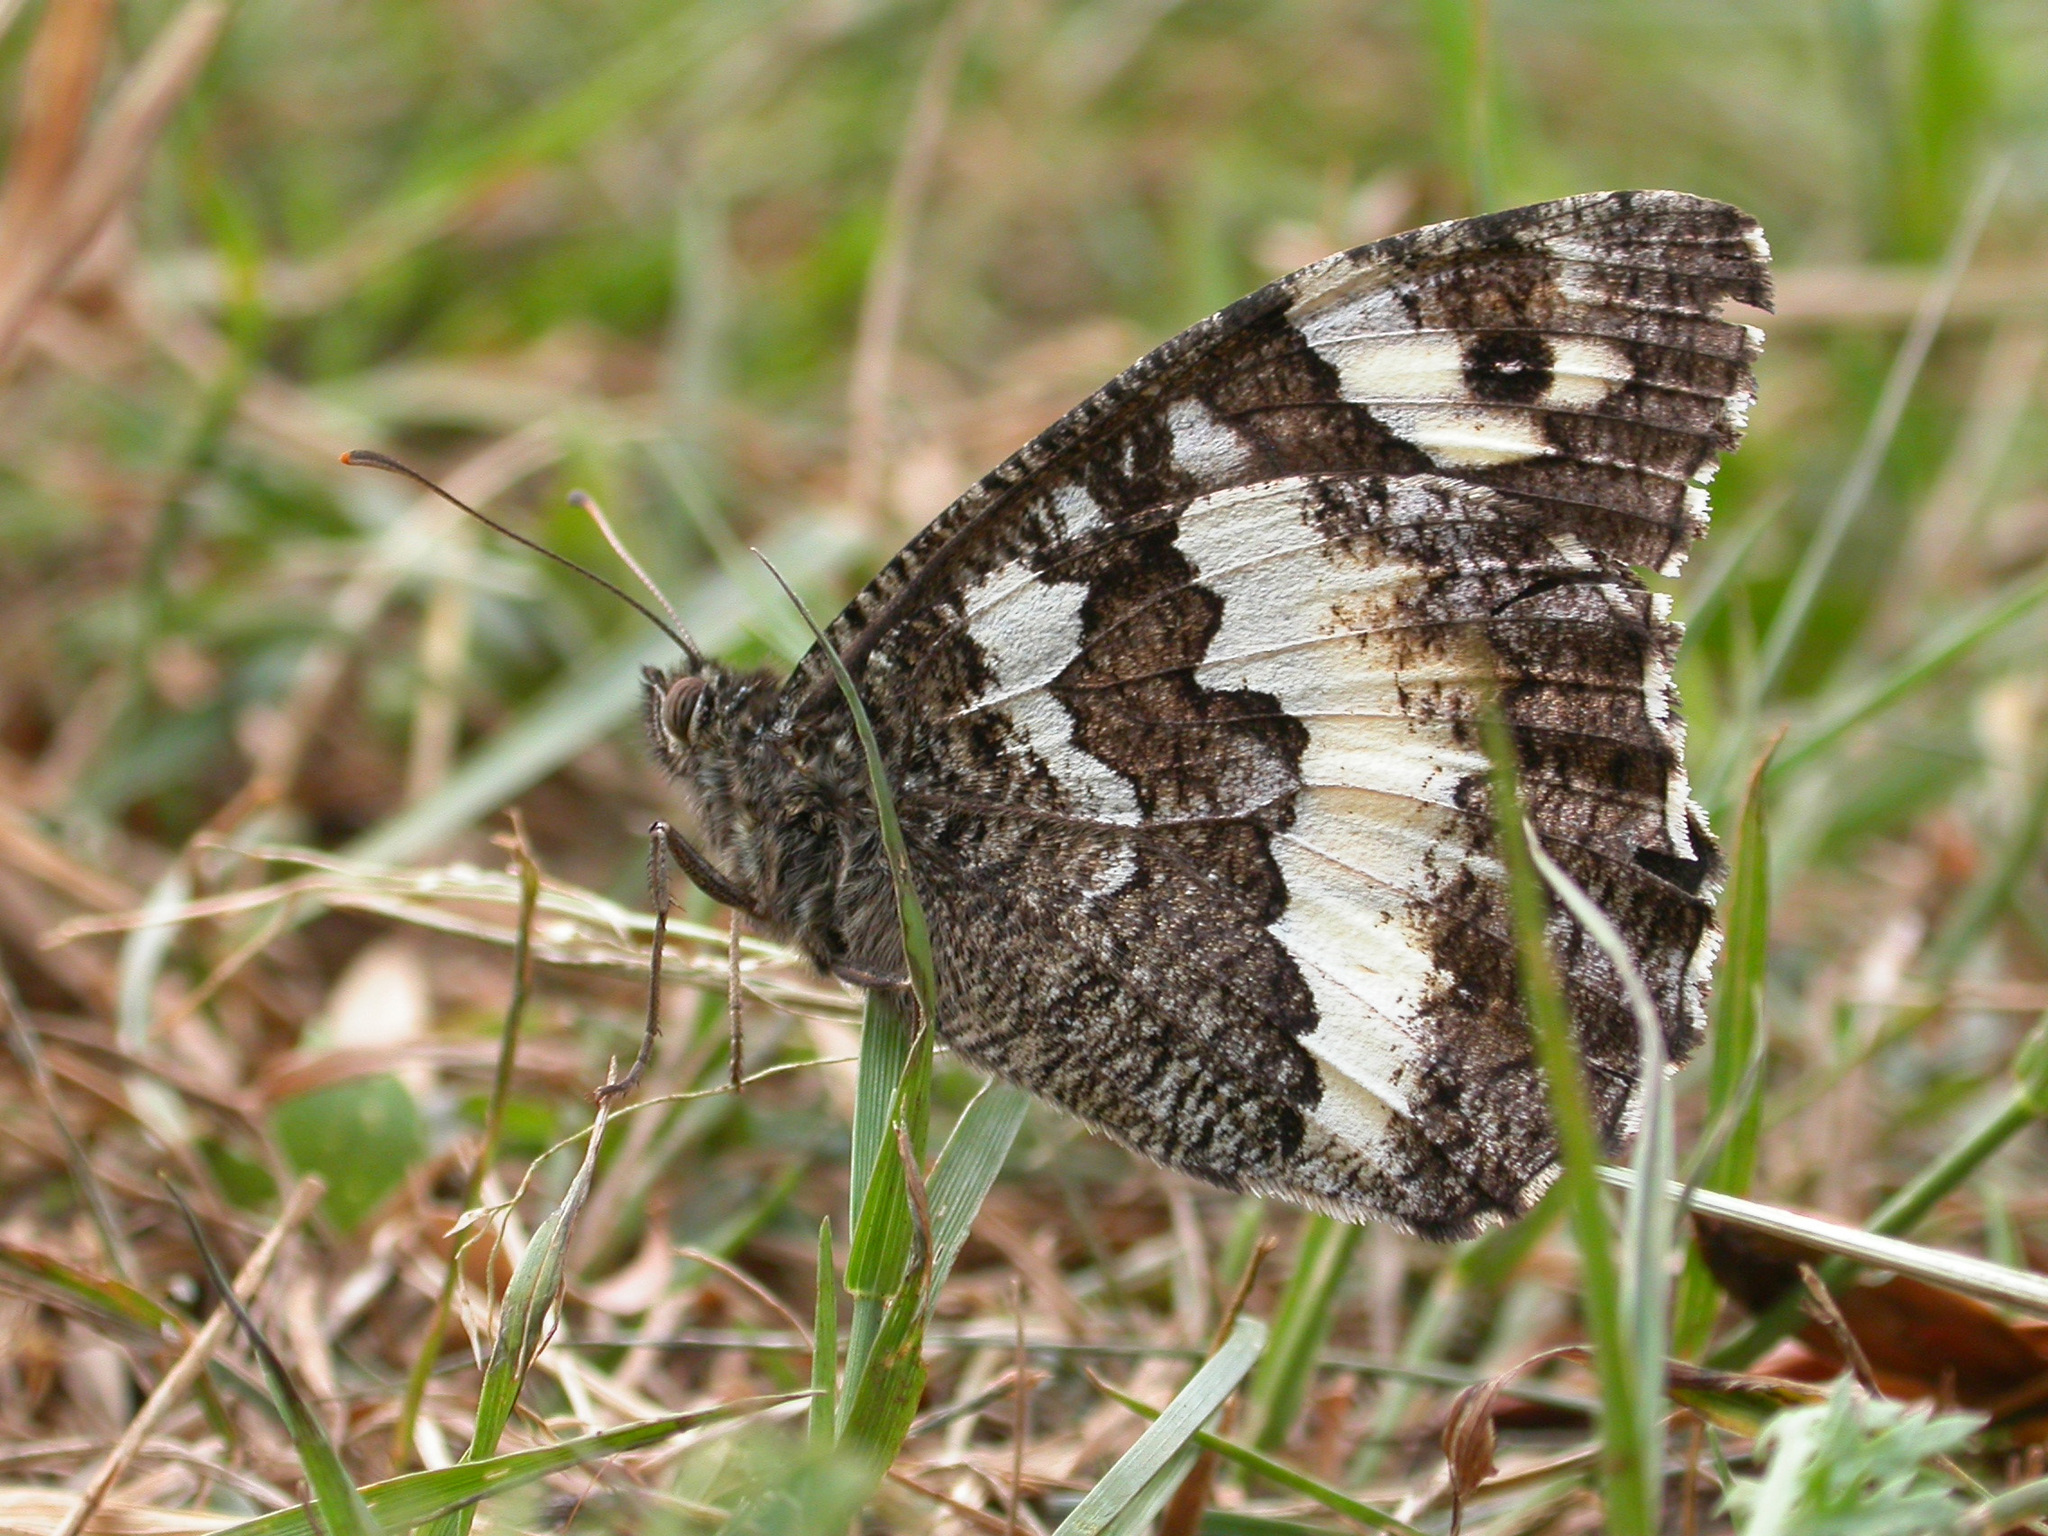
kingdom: Animalia
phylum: Arthropoda
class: Insecta
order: Lepidoptera
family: Lycaenidae
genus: Loweia
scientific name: Loweia tityrus
